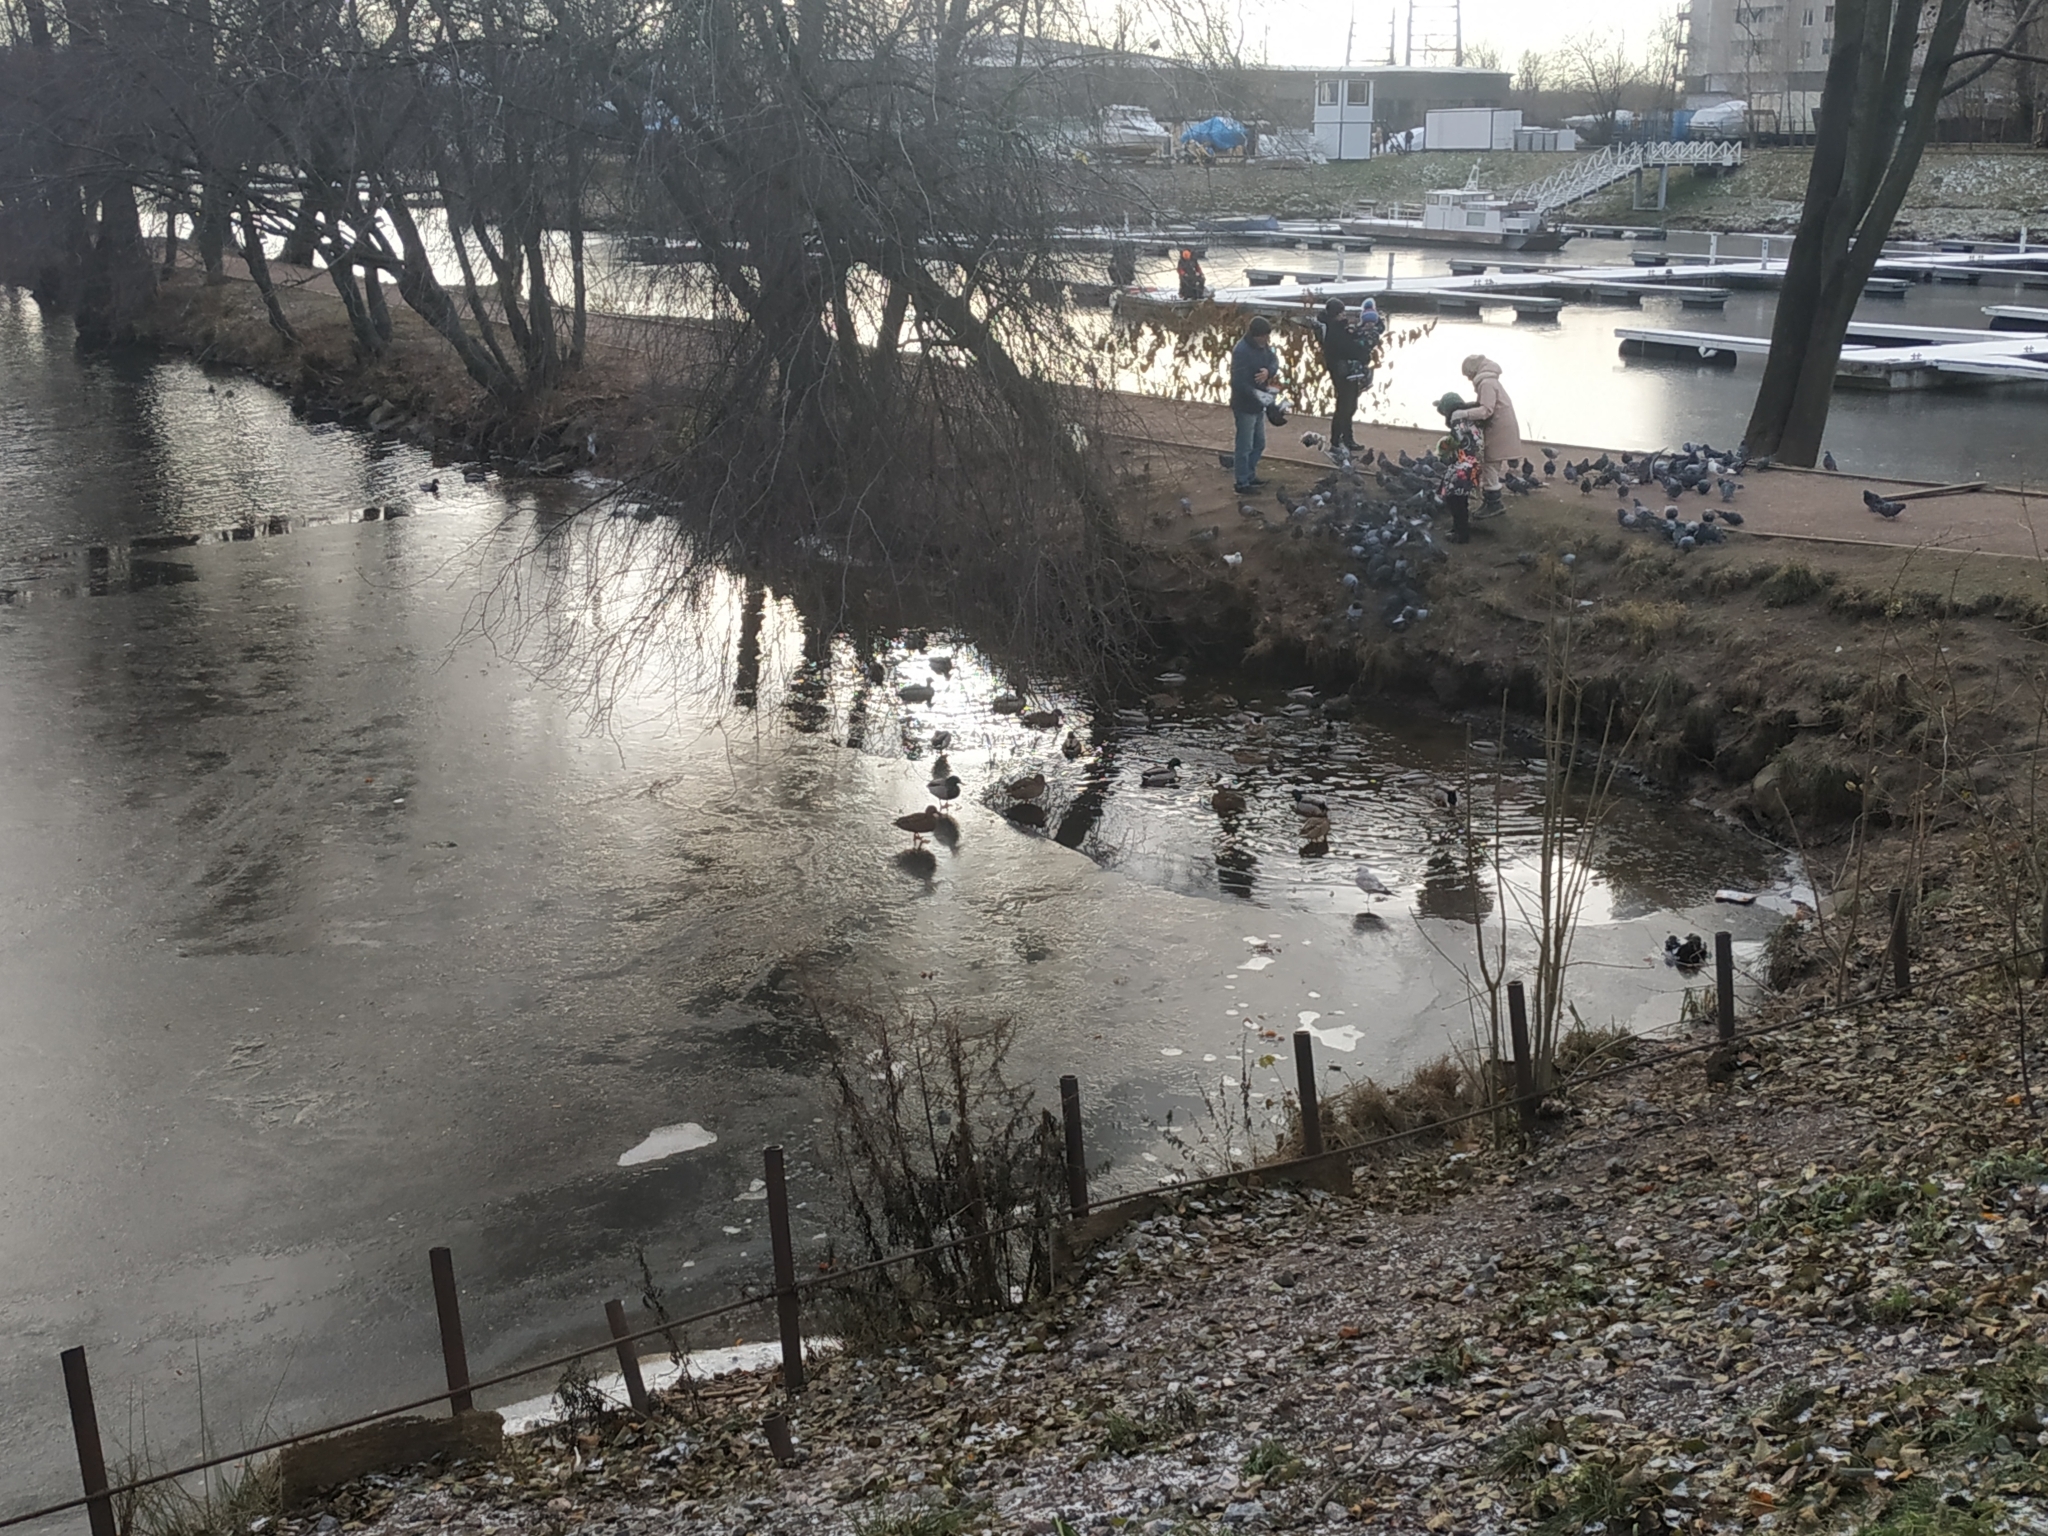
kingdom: Animalia
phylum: Chordata
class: Aves
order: Anseriformes
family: Anatidae
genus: Anas
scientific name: Anas platyrhynchos
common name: Mallard
